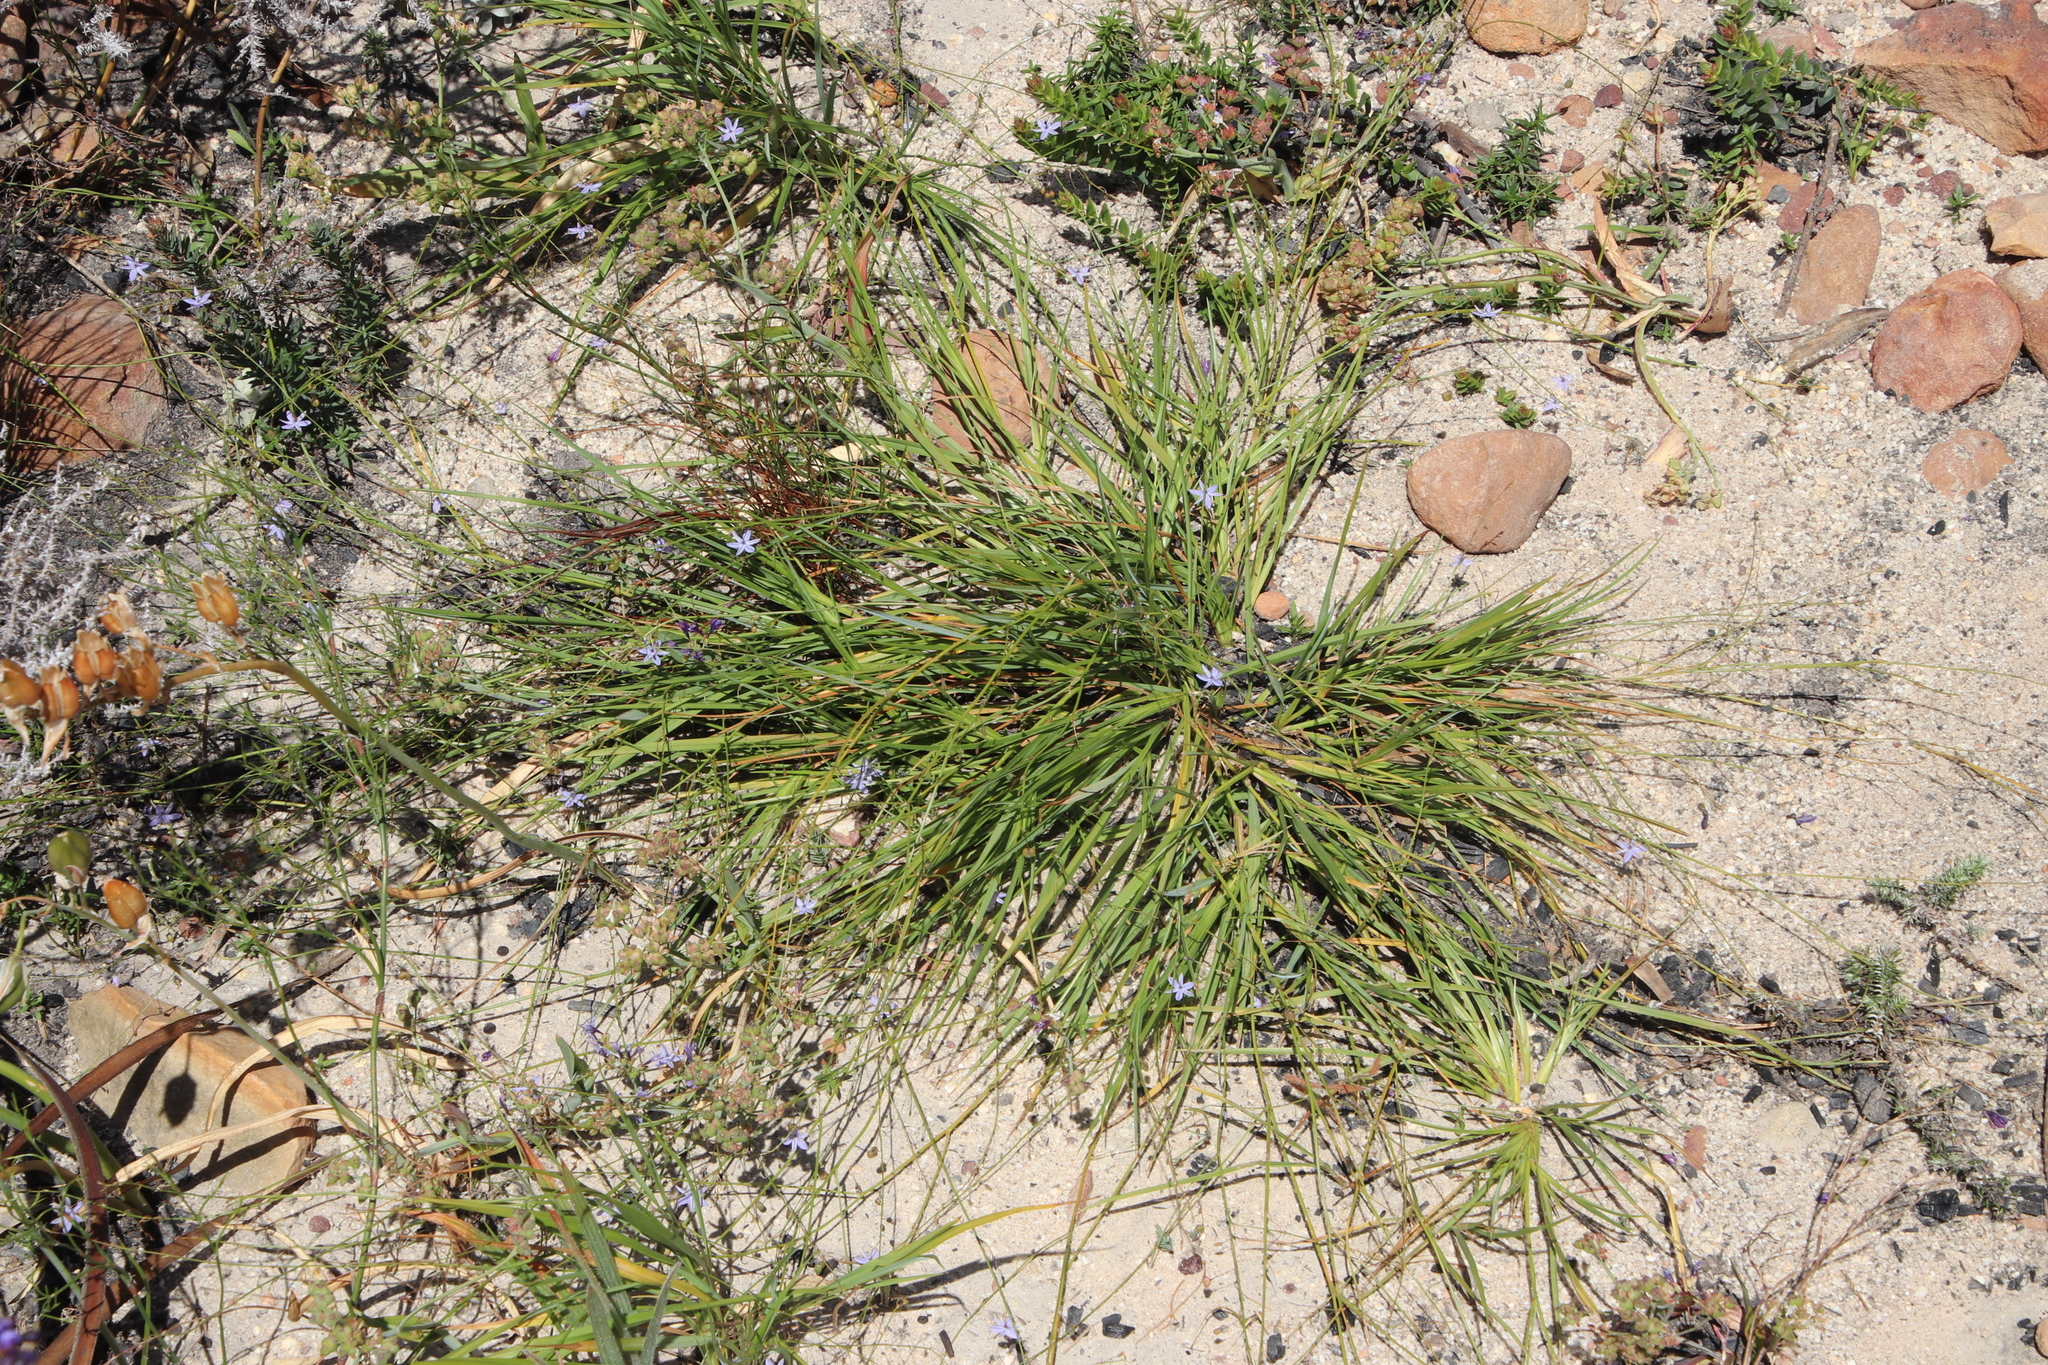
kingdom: Plantae
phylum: Tracheophyta
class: Liliopsida
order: Asparagales
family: Asphodelaceae
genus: Caesia
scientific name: Caesia contorta
